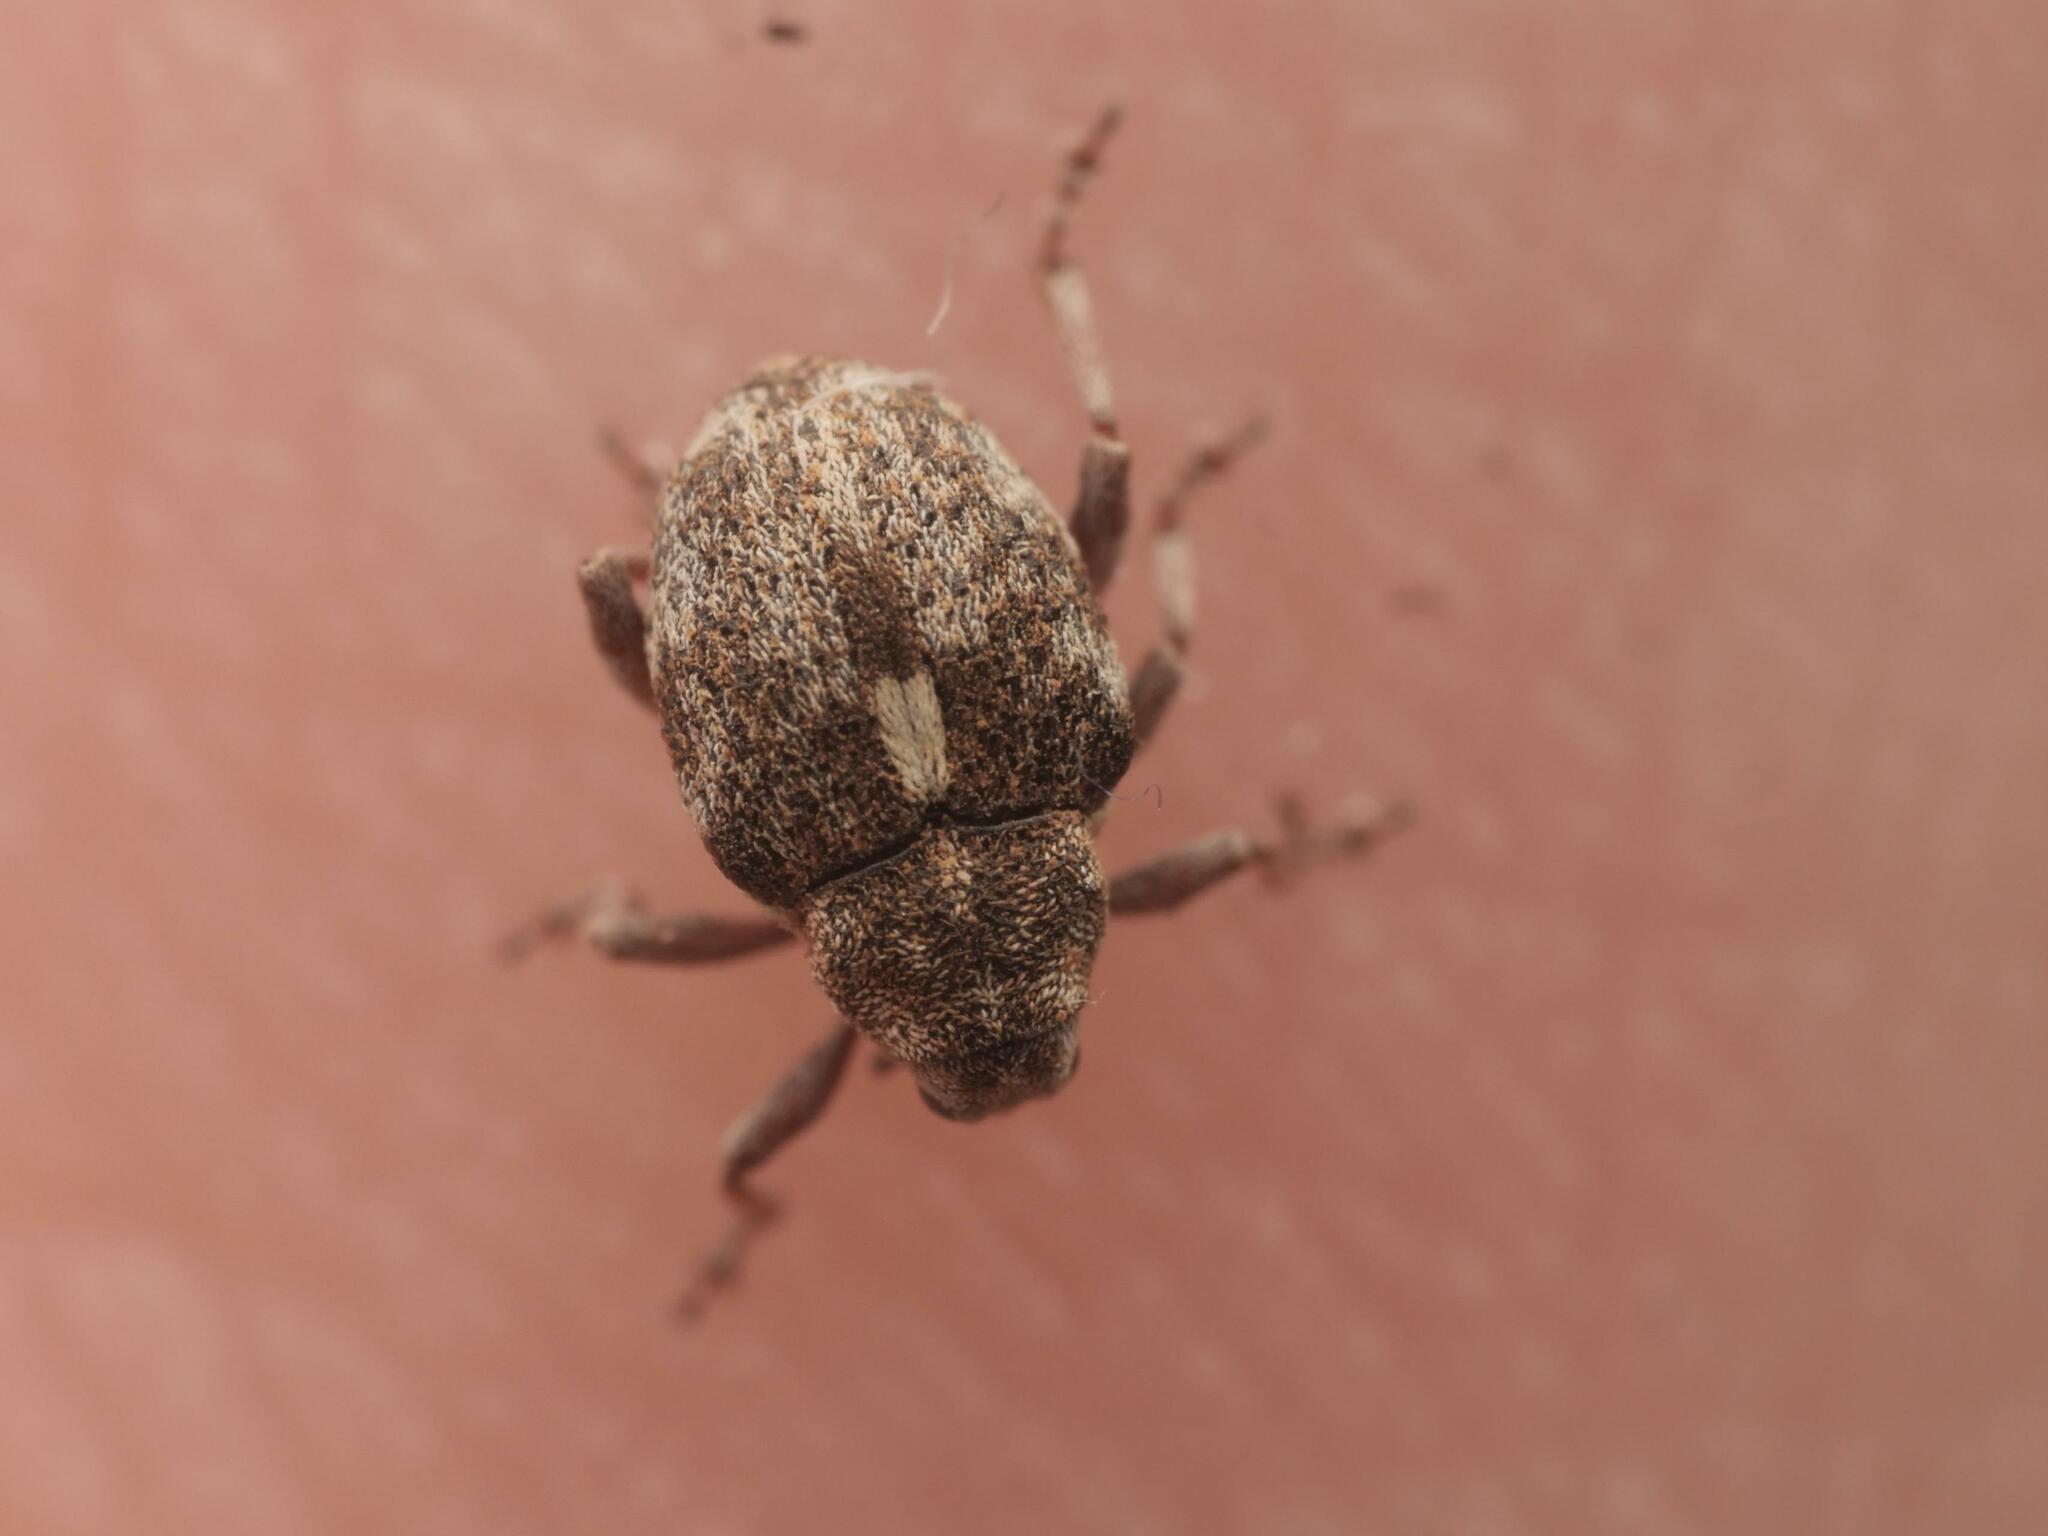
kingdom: Animalia
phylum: Arthropoda
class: Insecta
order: Coleoptera
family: Curculionidae
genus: Rhinoncus
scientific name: Rhinoncus pericarpius
